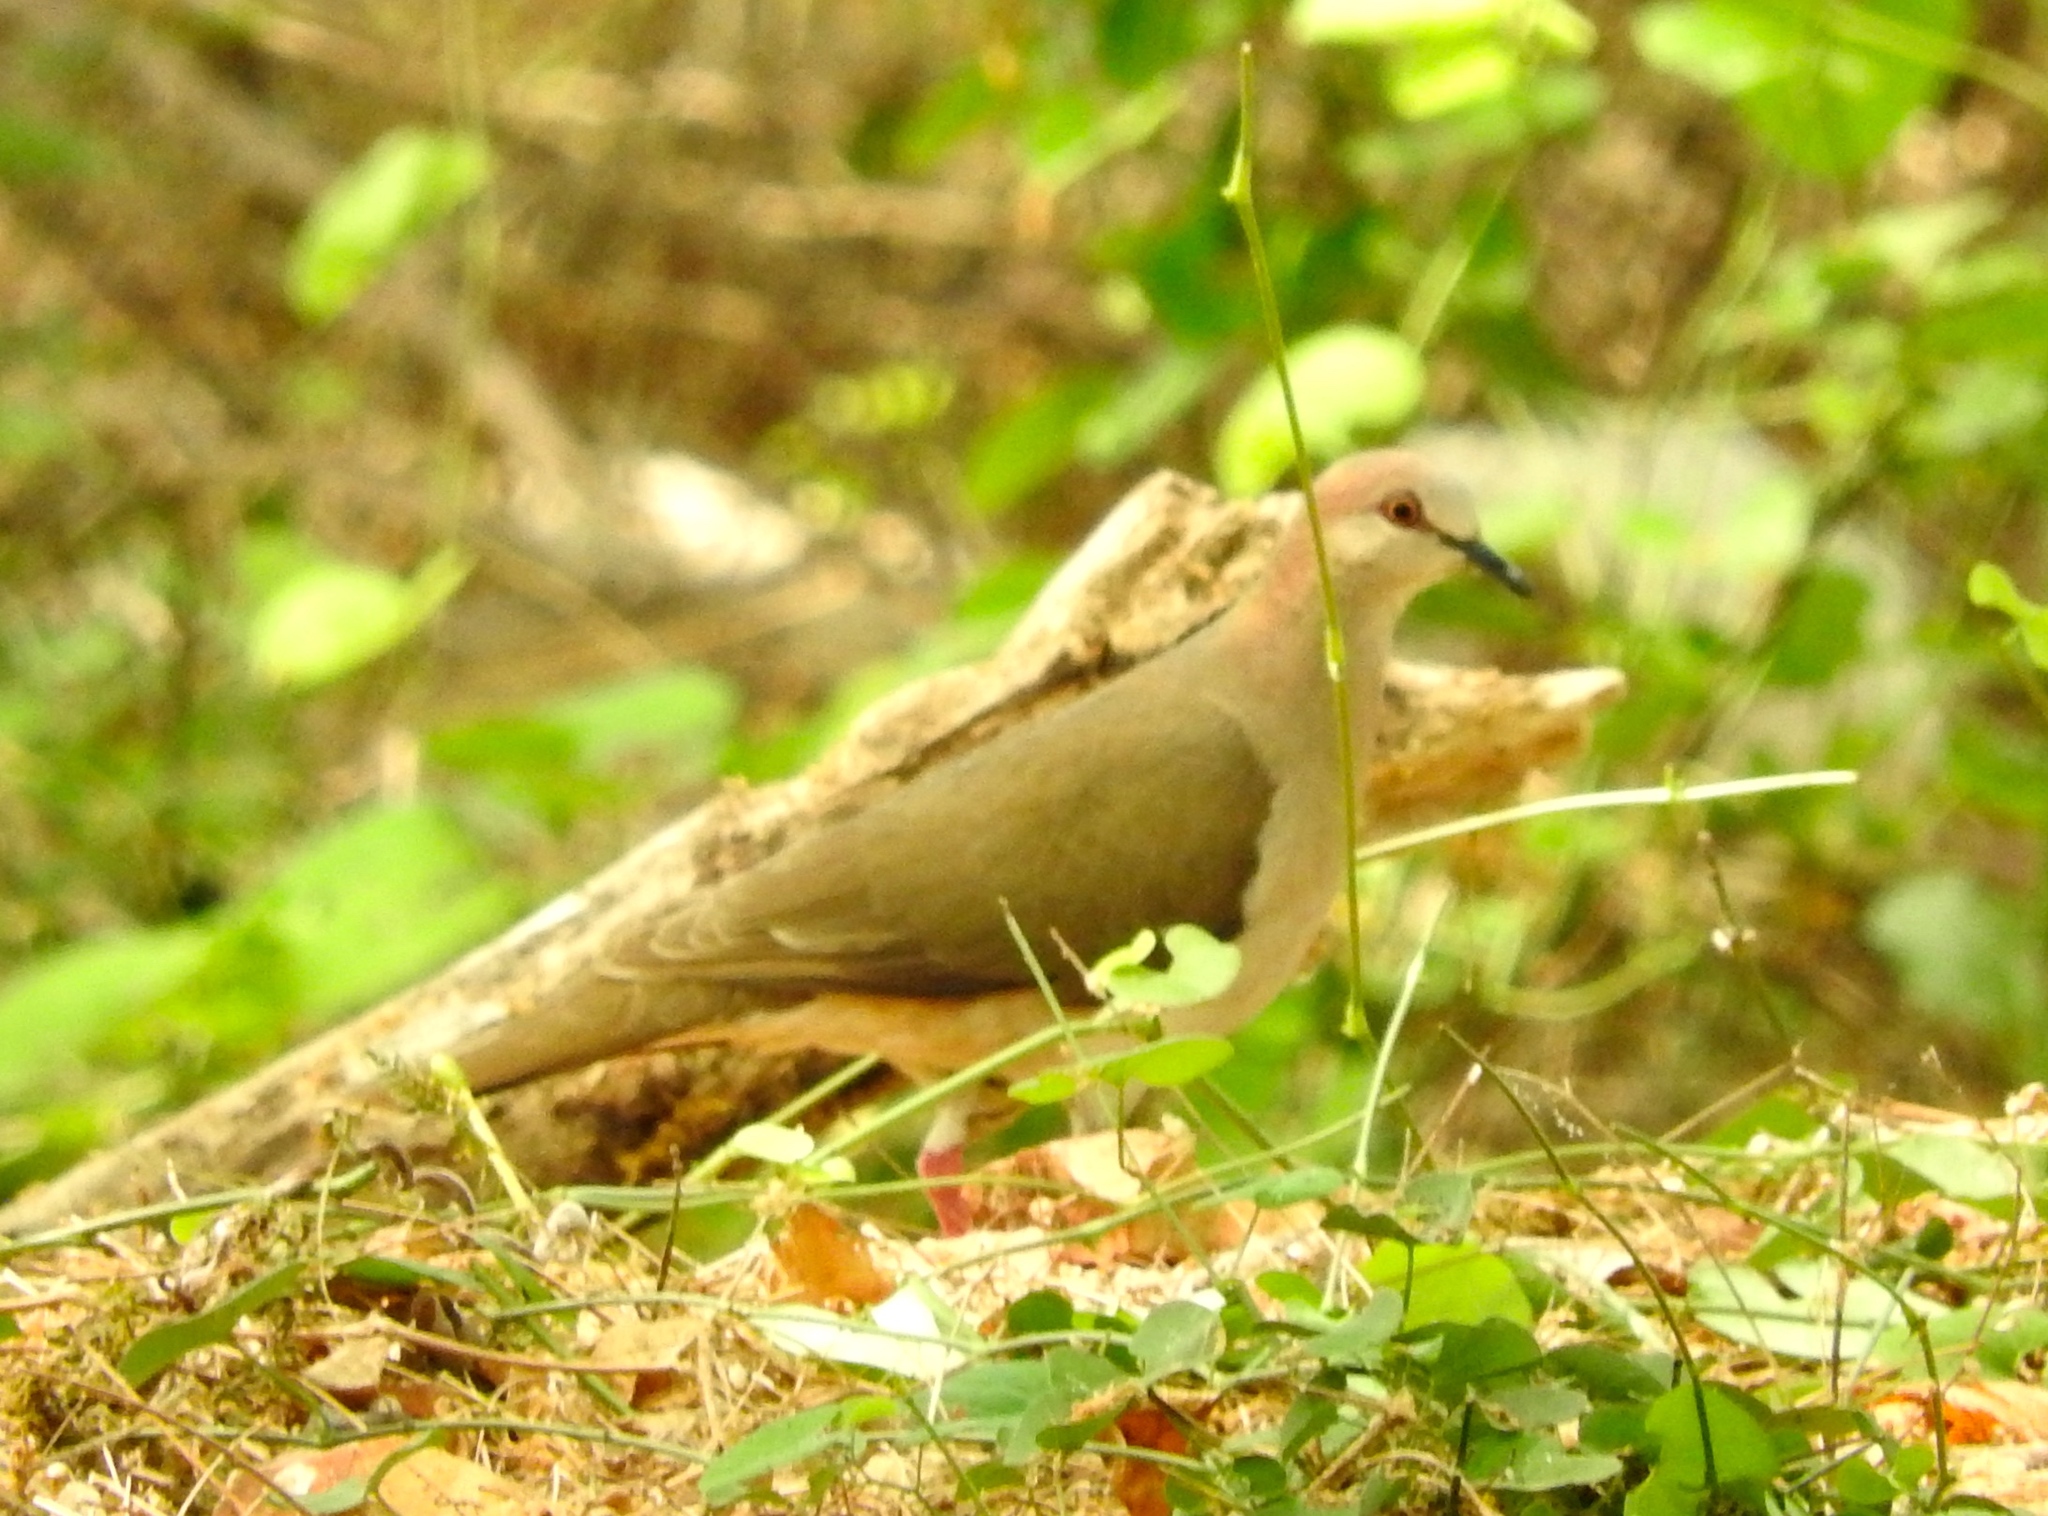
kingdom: Animalia
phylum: Chordata
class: Aves
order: Columbiformes
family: Columbidae
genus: Leptotila
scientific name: Leptotila verreauxi
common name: White-tipped dove
